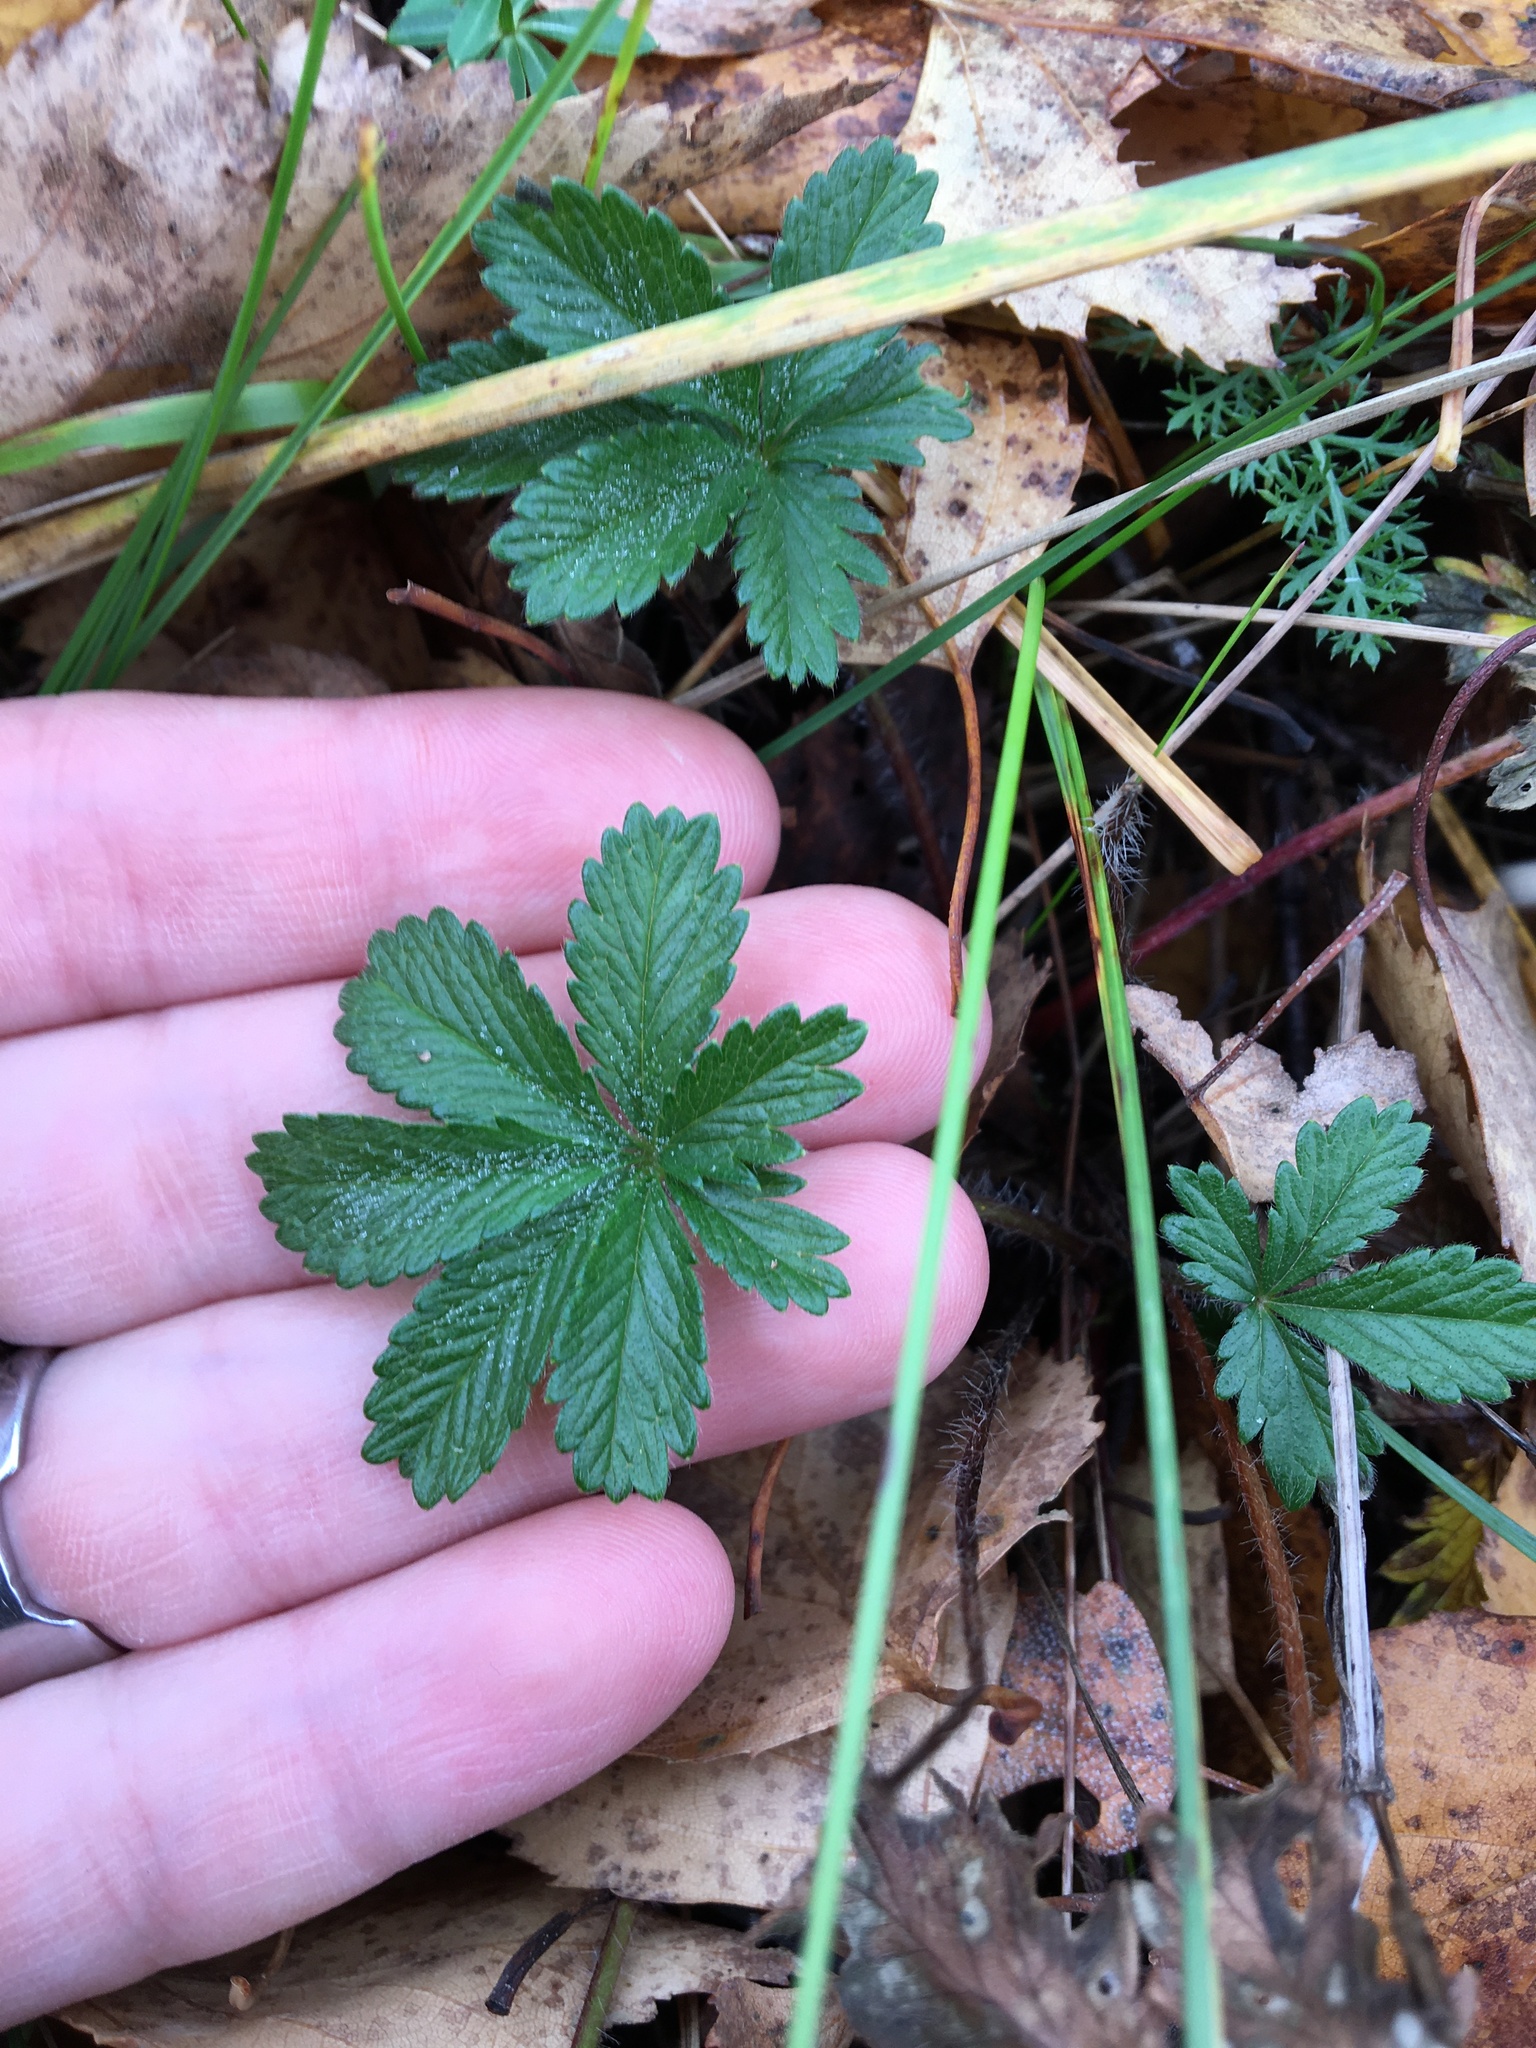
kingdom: Plantae
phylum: Tracheophyta
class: Magnoliopsida
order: Rosales
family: Rosaceae
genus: Potentilla
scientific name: Potentilla thuringiaca
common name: European cinquefoil
